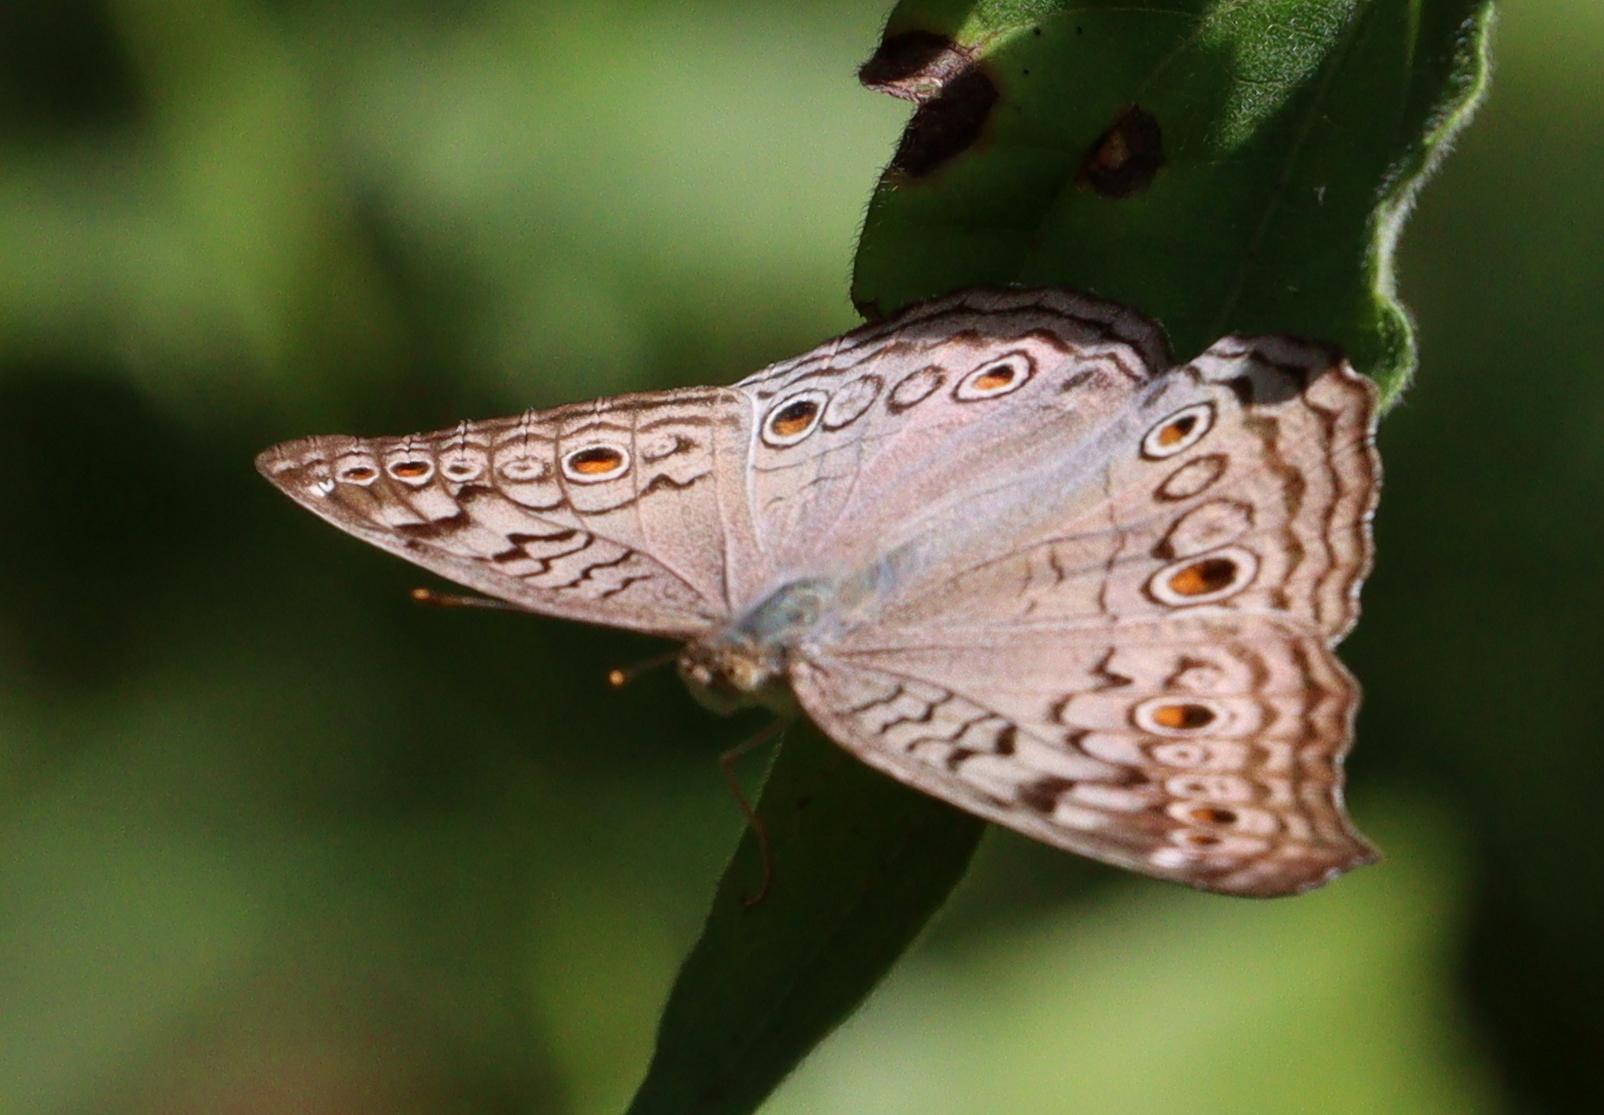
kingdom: Animalia
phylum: Arthropoda
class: Insecta
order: Lepidoptera
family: Nymphalidae
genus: Junonia
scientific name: Junonia atlites
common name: Grey pansy
